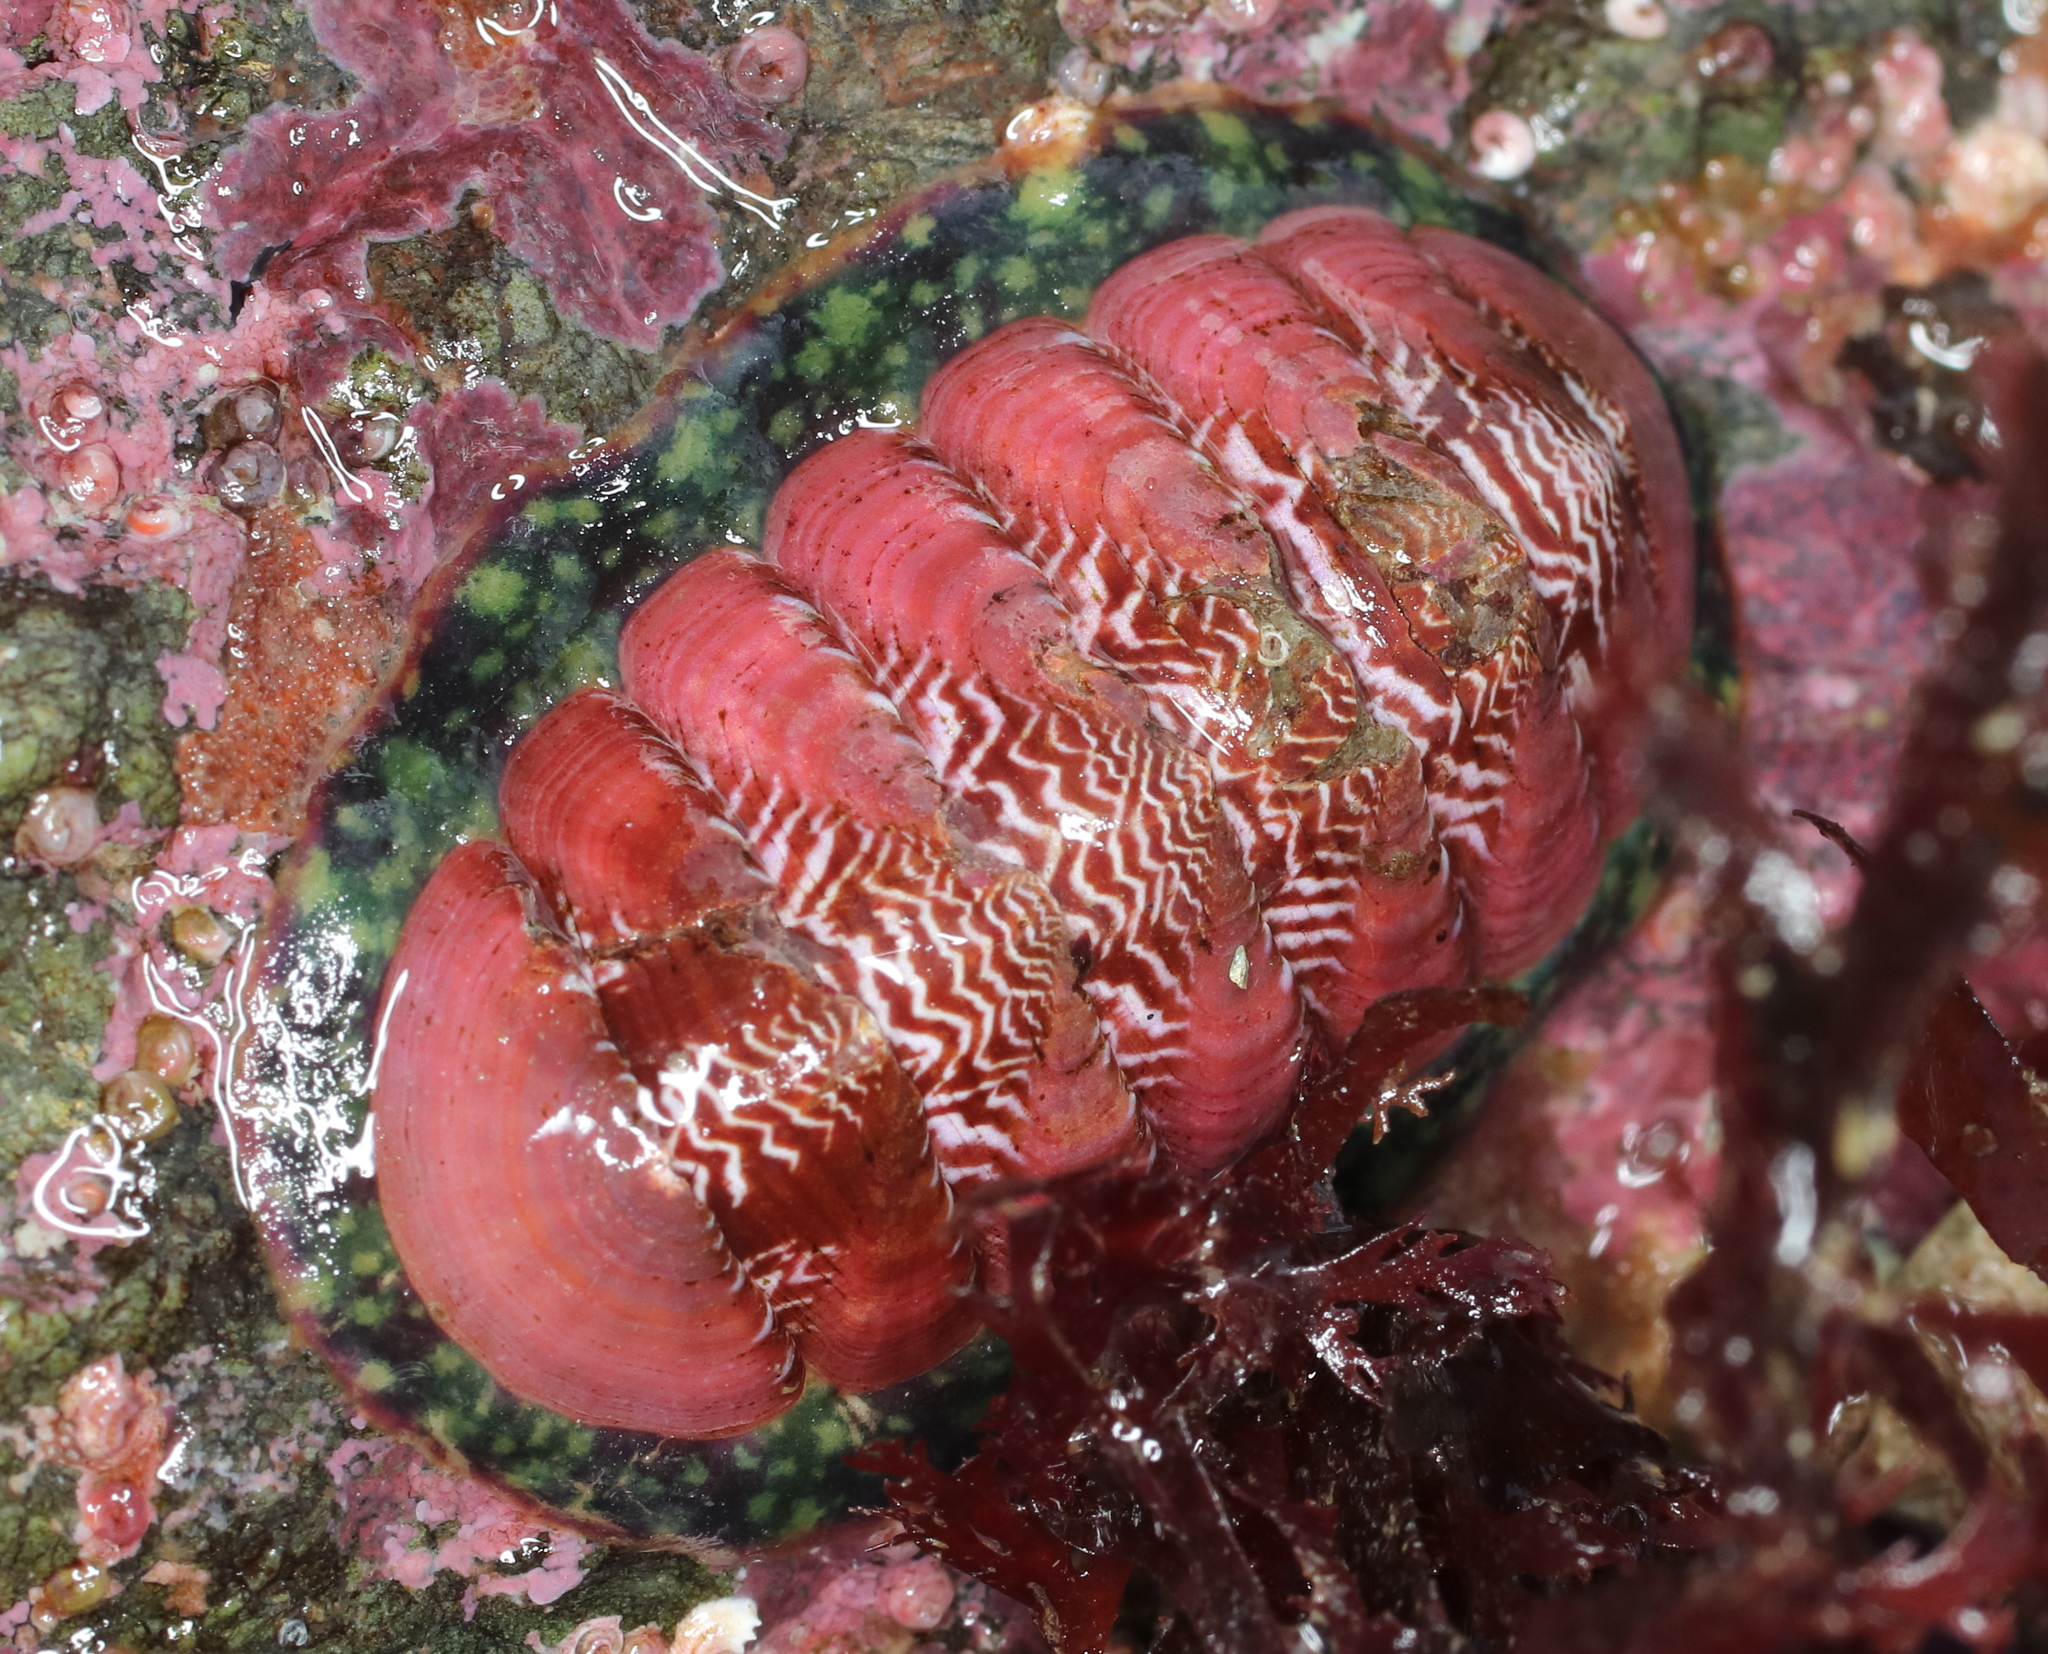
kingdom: Animalia
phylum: Mollusca
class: Polyplacophora
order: Chitonida
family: Tonicellidae
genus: Tonicella
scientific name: Tonicella insignis
